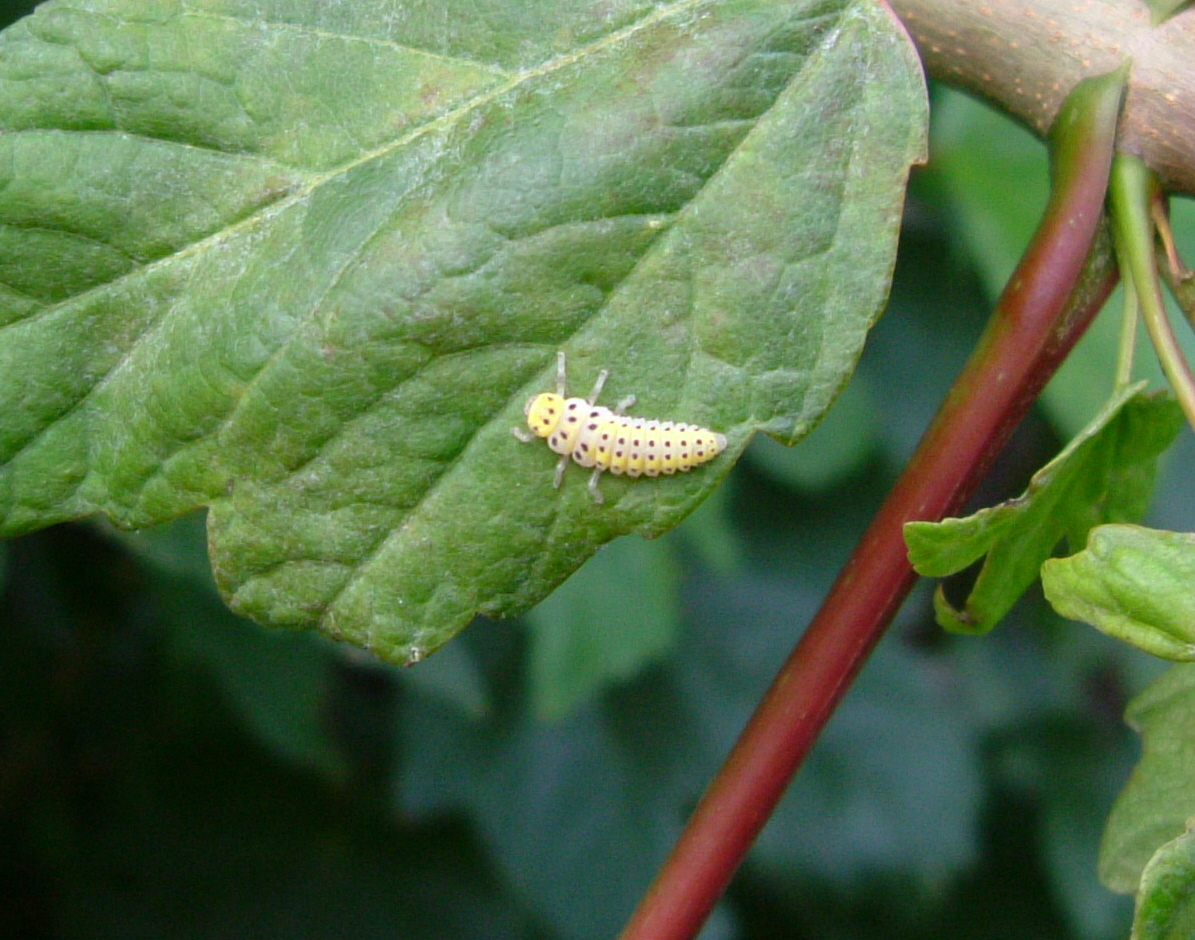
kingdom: Animalia
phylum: Arthropoda
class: Insecta
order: Coleoptera
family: Coccinellidae
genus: Halyzia
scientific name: Halyzia sedecimguttata
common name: Orange ladybird
